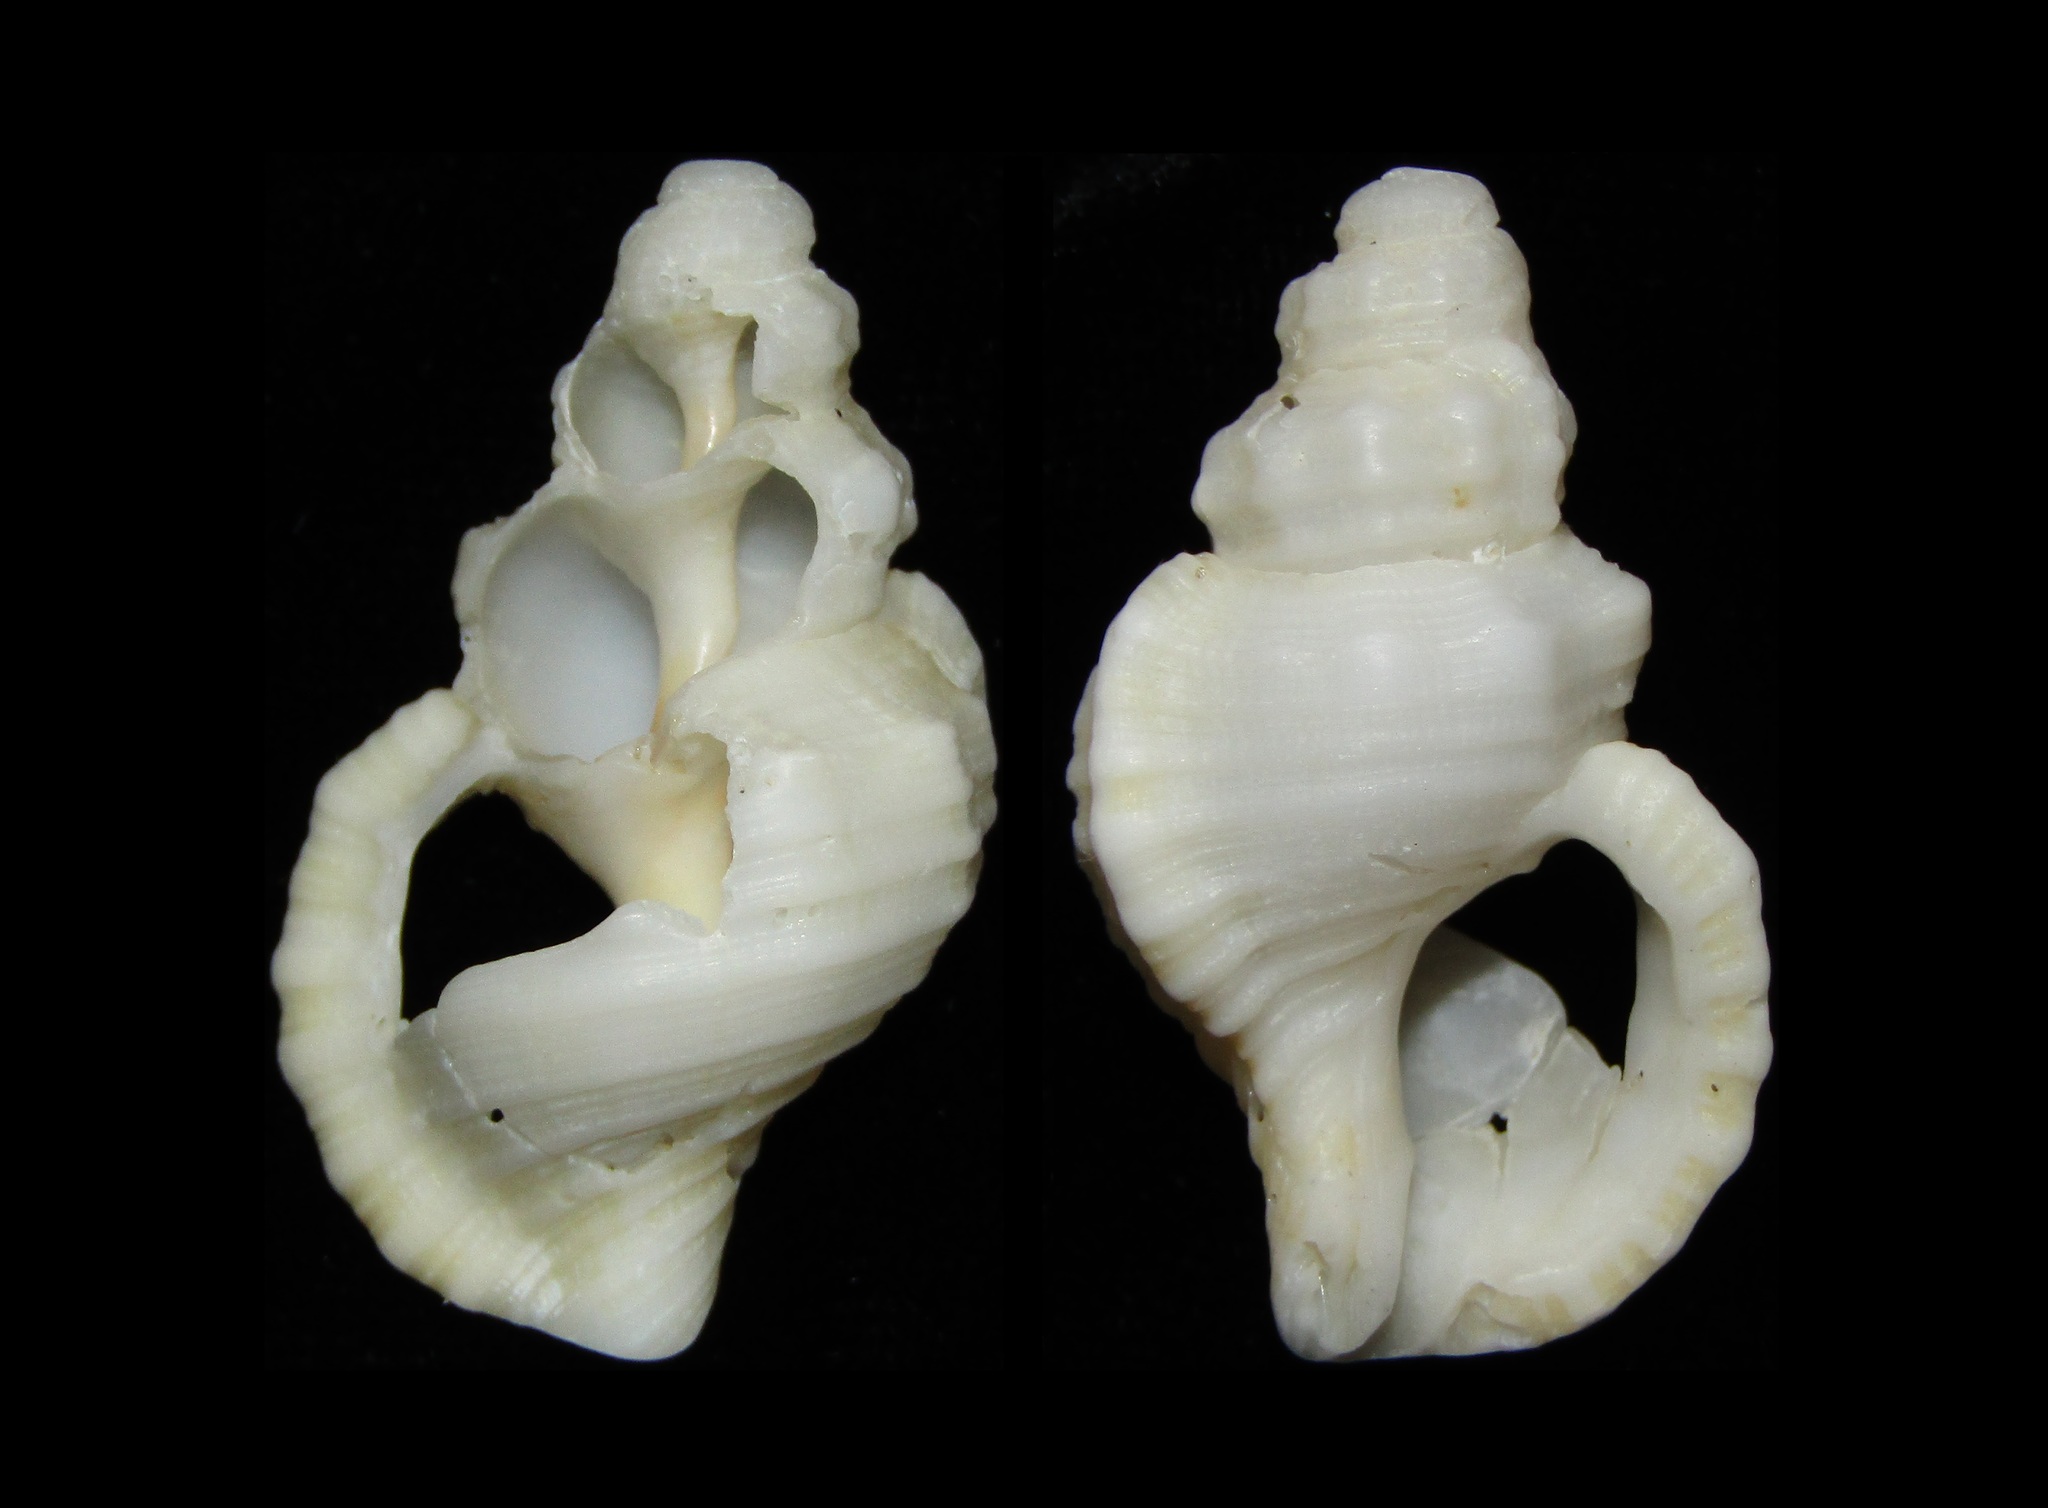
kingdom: Animalia
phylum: Mollusca
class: Gastropoda
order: Littorinimorpha
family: Cymatiidae
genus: Cabestana
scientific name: Cabestana tabulata
